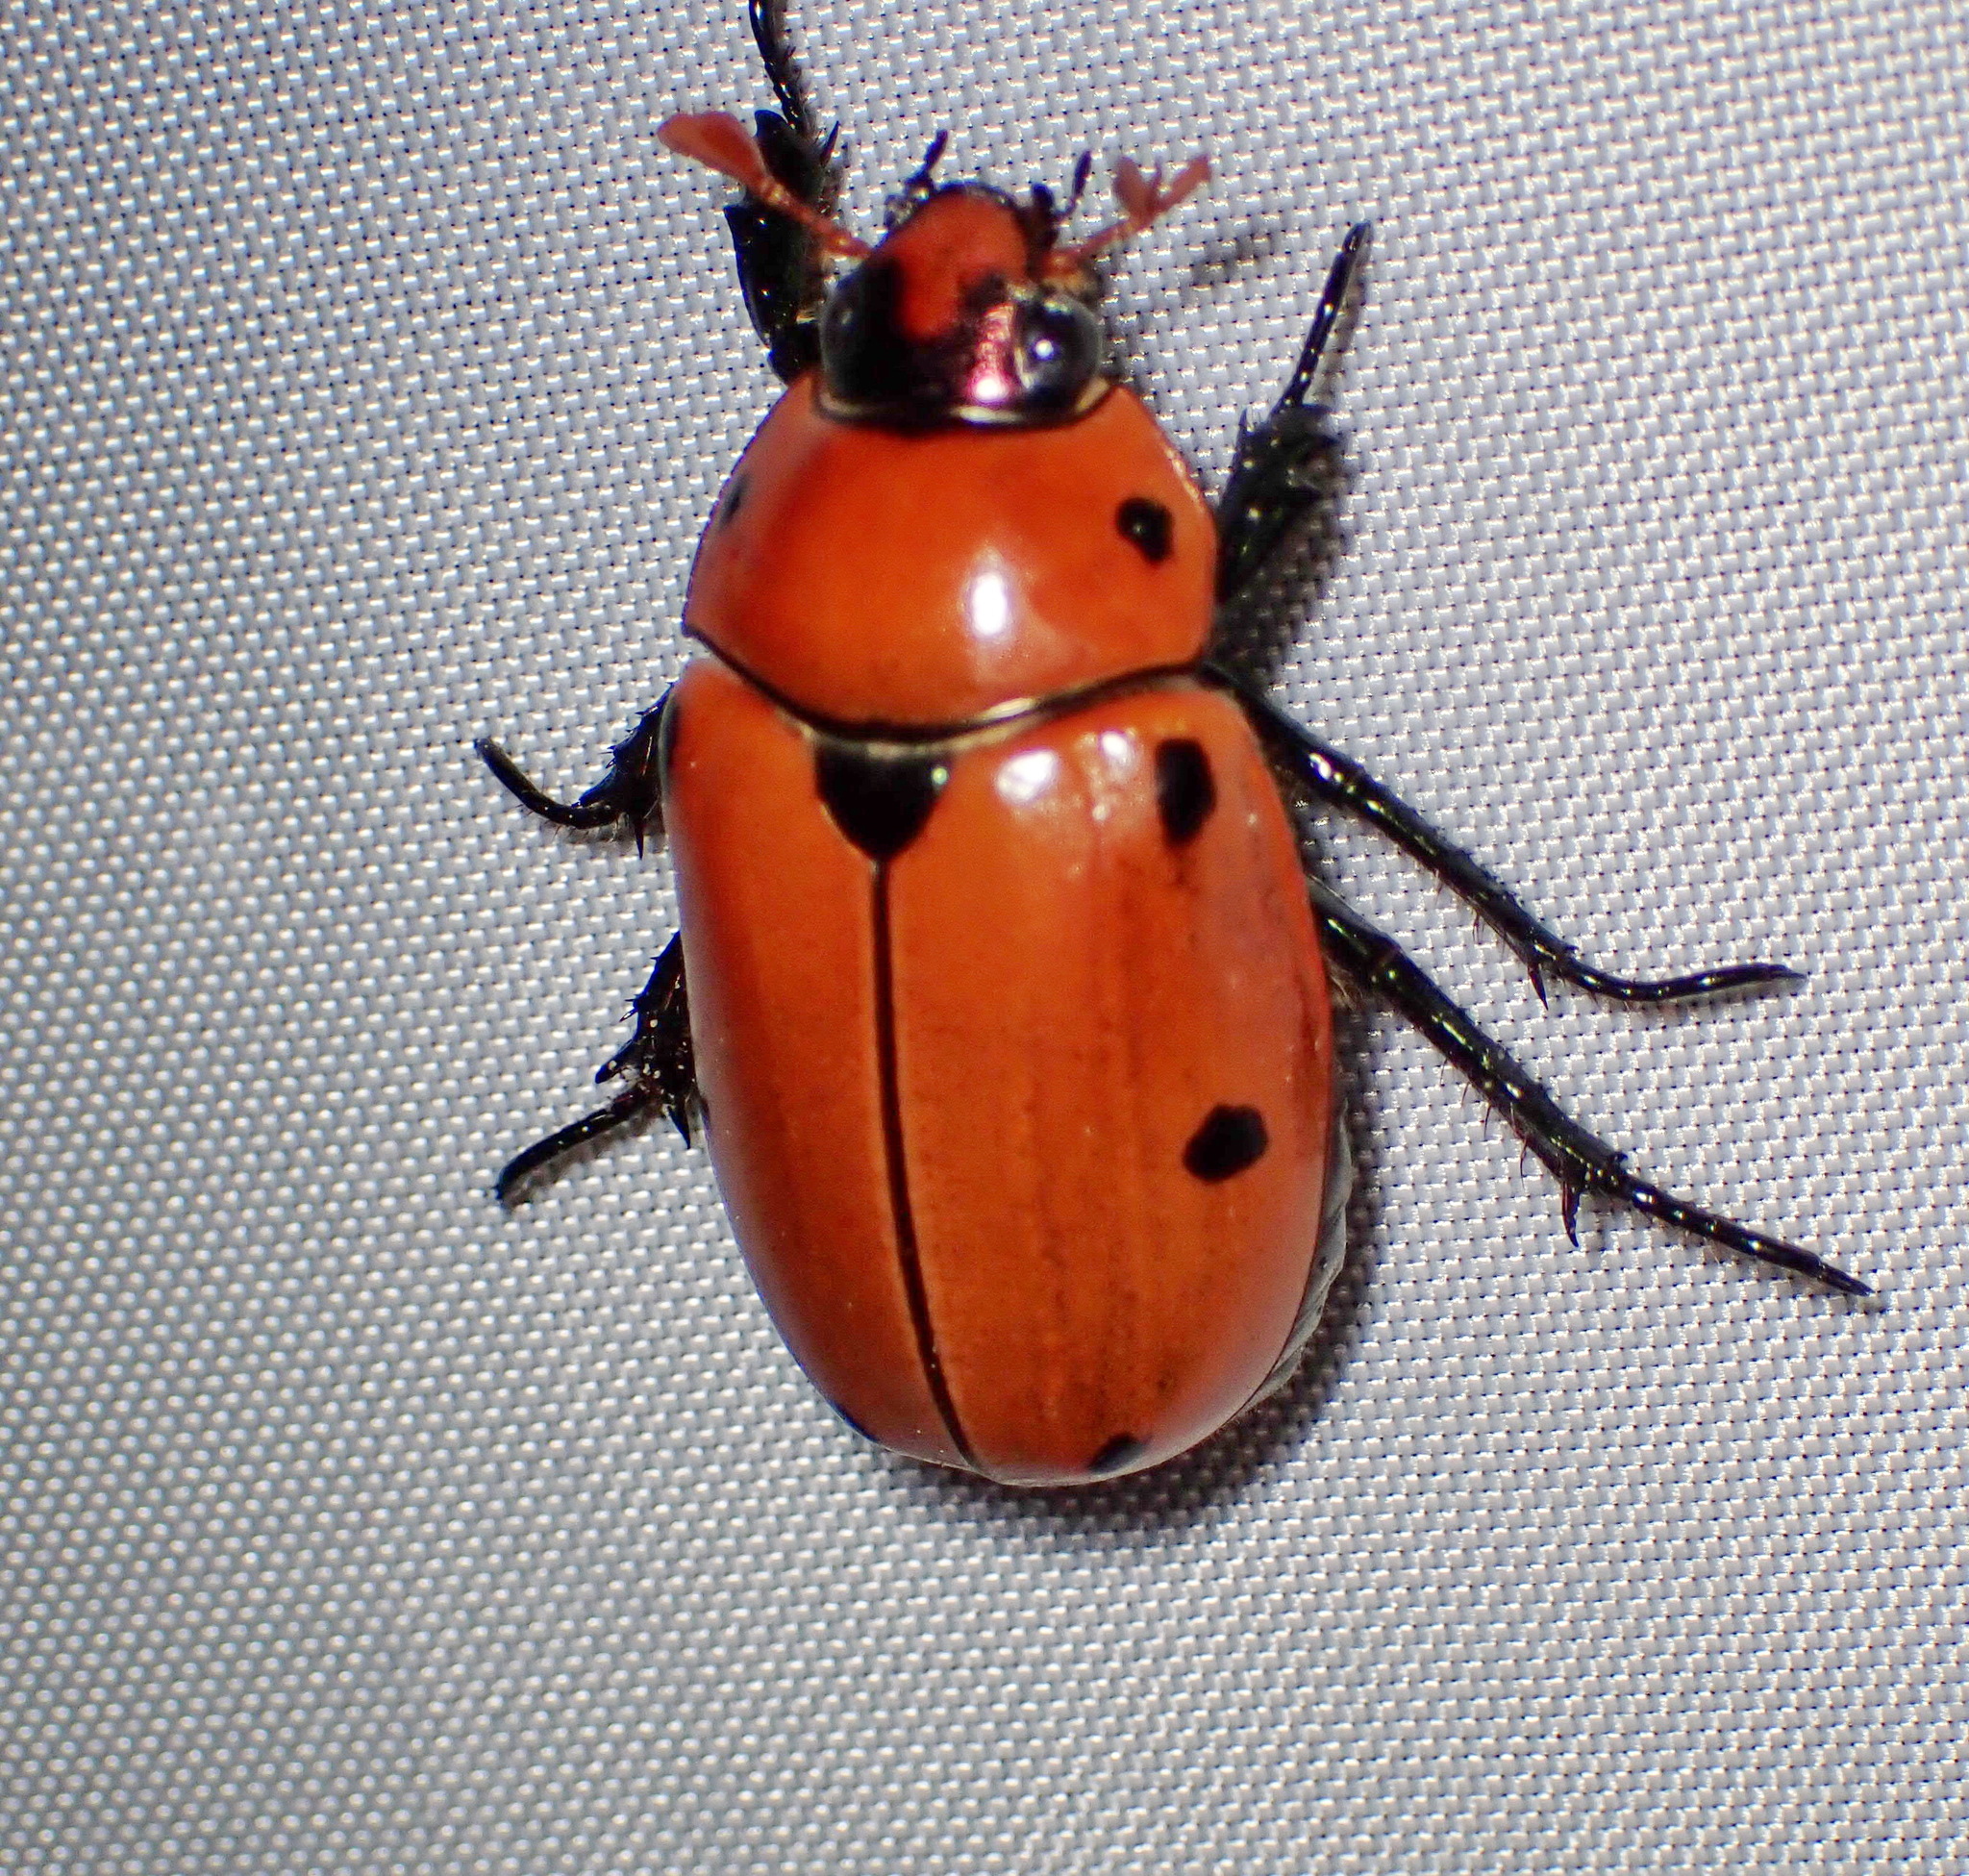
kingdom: Animalia
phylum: Arthropoda
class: Insecta
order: Coleoptera
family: Scarabaeidae
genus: Pelidnota
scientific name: Pelidnota punctata
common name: Grapevine beetle
